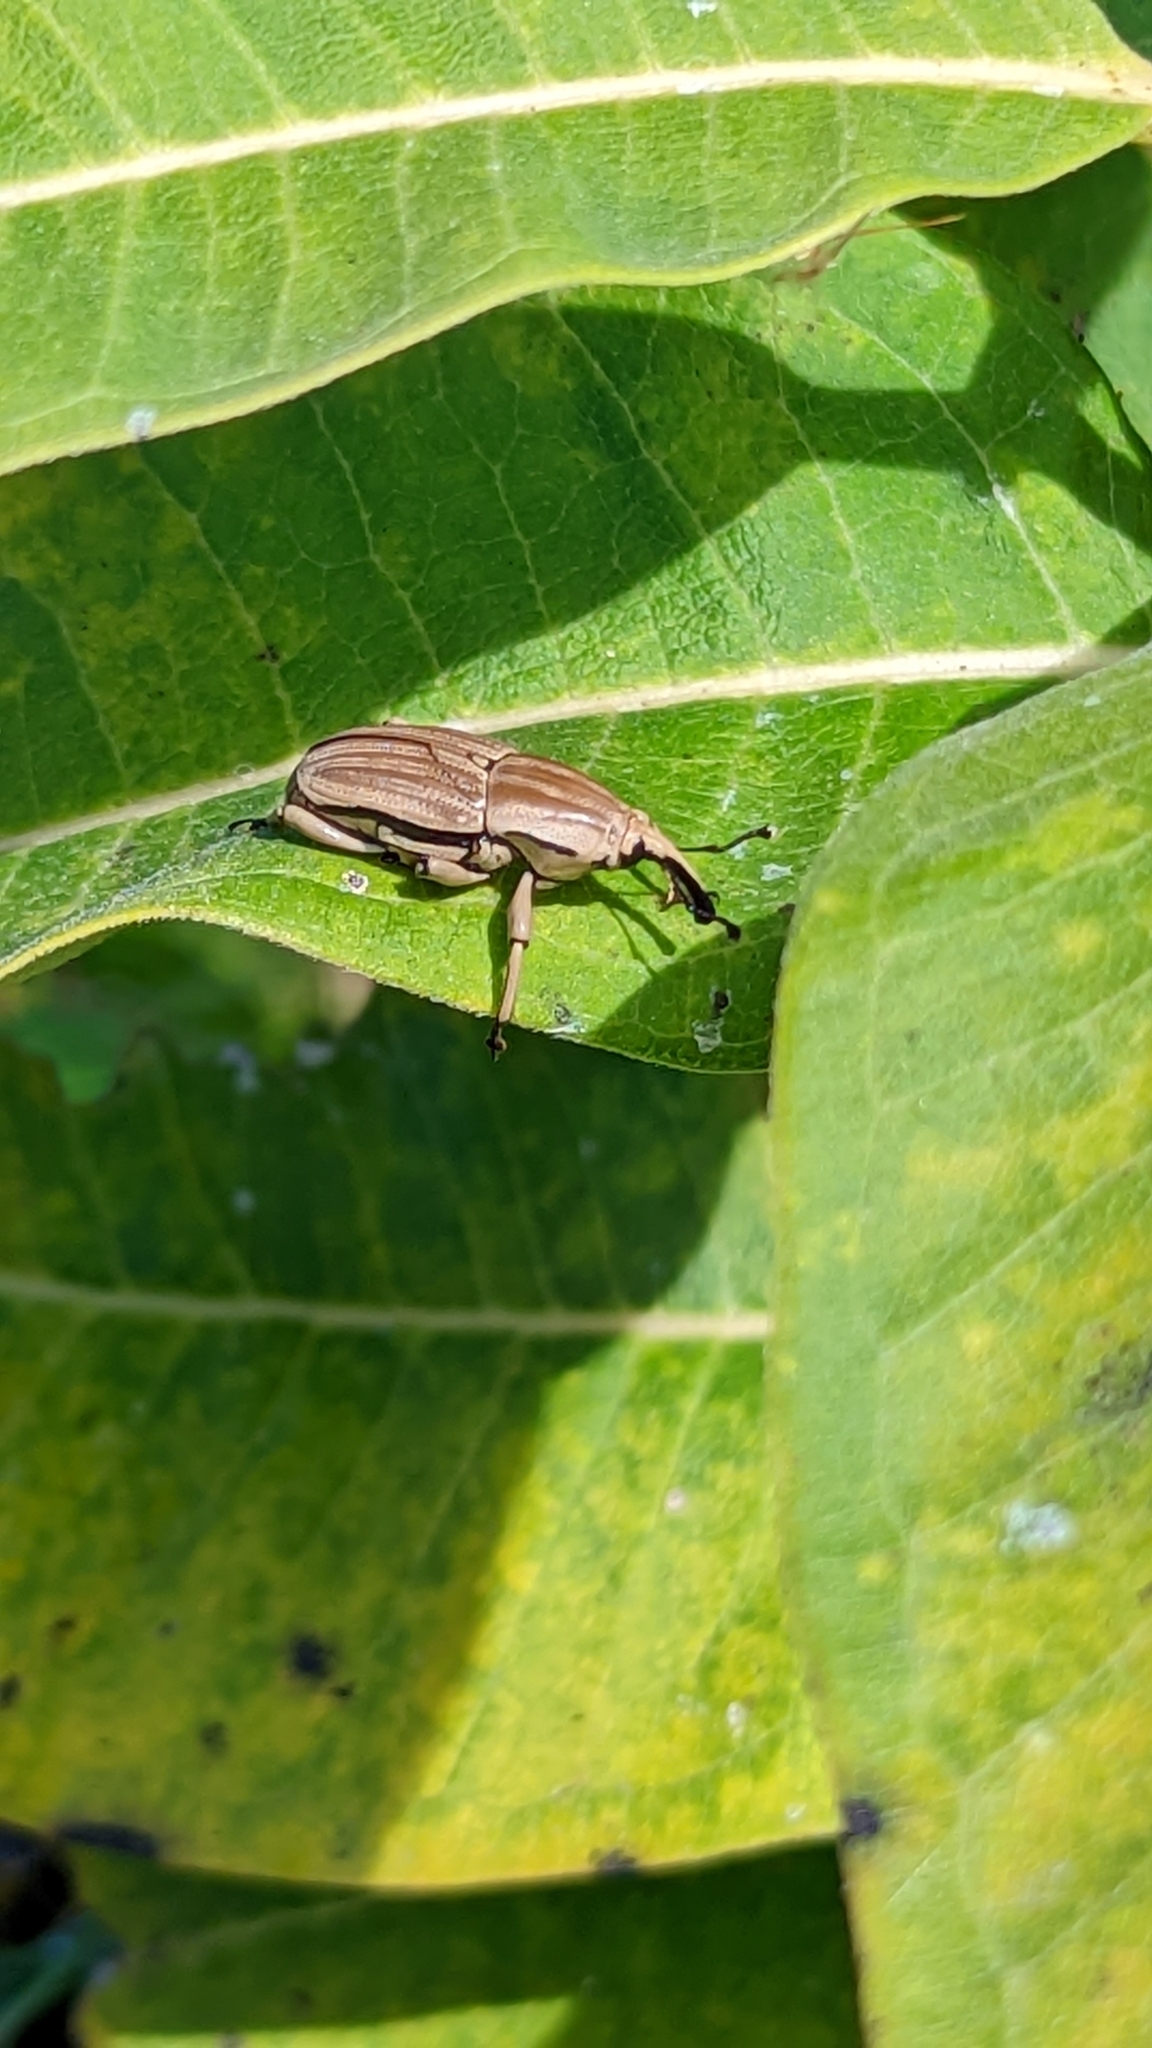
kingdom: Animalia
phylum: Arthropoda
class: Insecta
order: Coleoptera
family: Dryophthoridae
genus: Sphenophorus
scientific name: Sphenophorus aequalis
